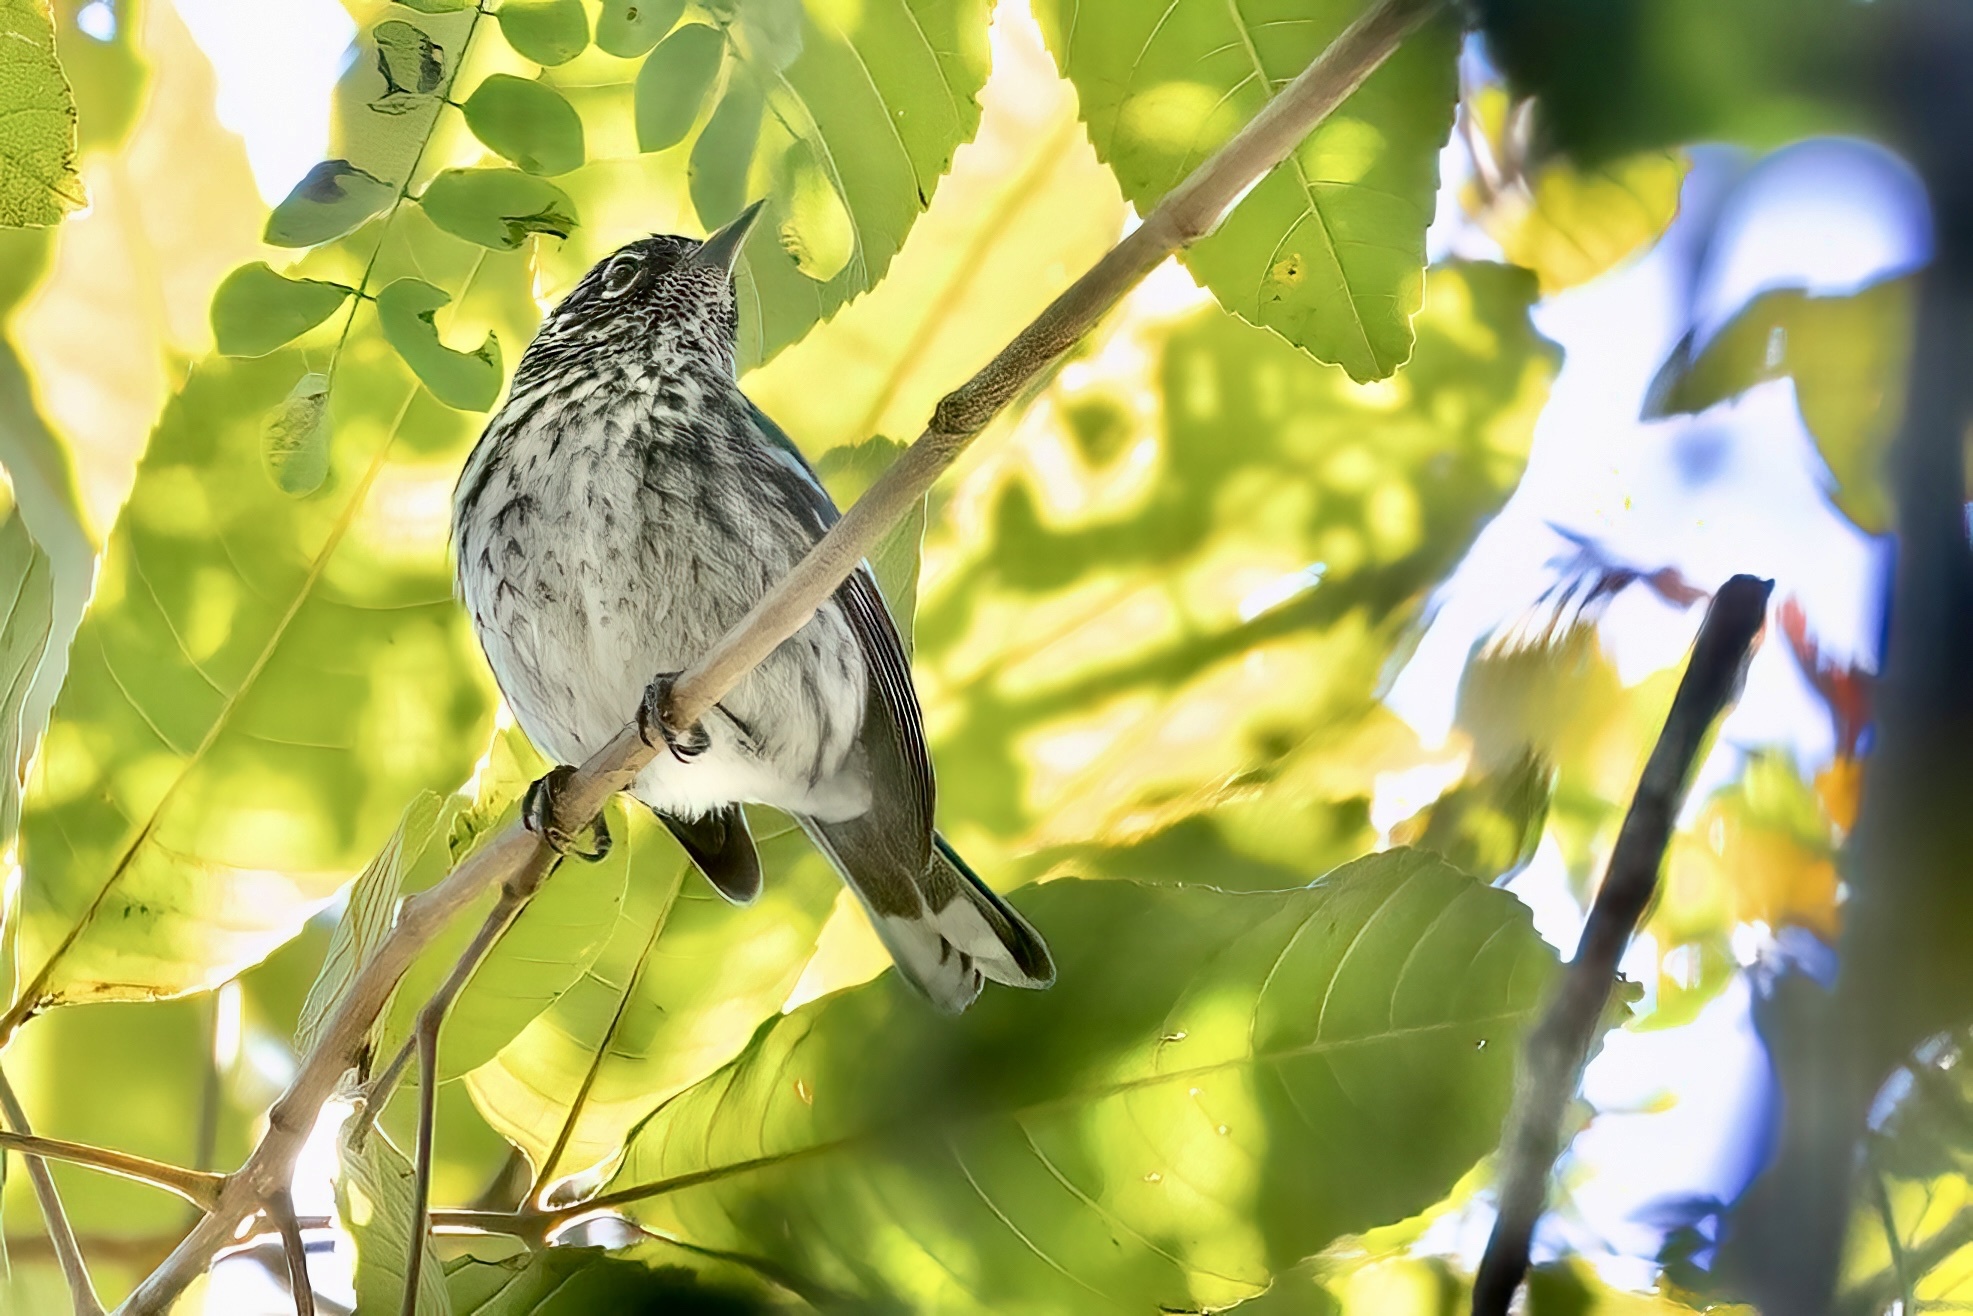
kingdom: Animalia
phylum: Chordata
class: Aves
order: Passeriformes
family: Parulidae
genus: Setophaga
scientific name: Setophaga angelae
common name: Elfin woods warbler
